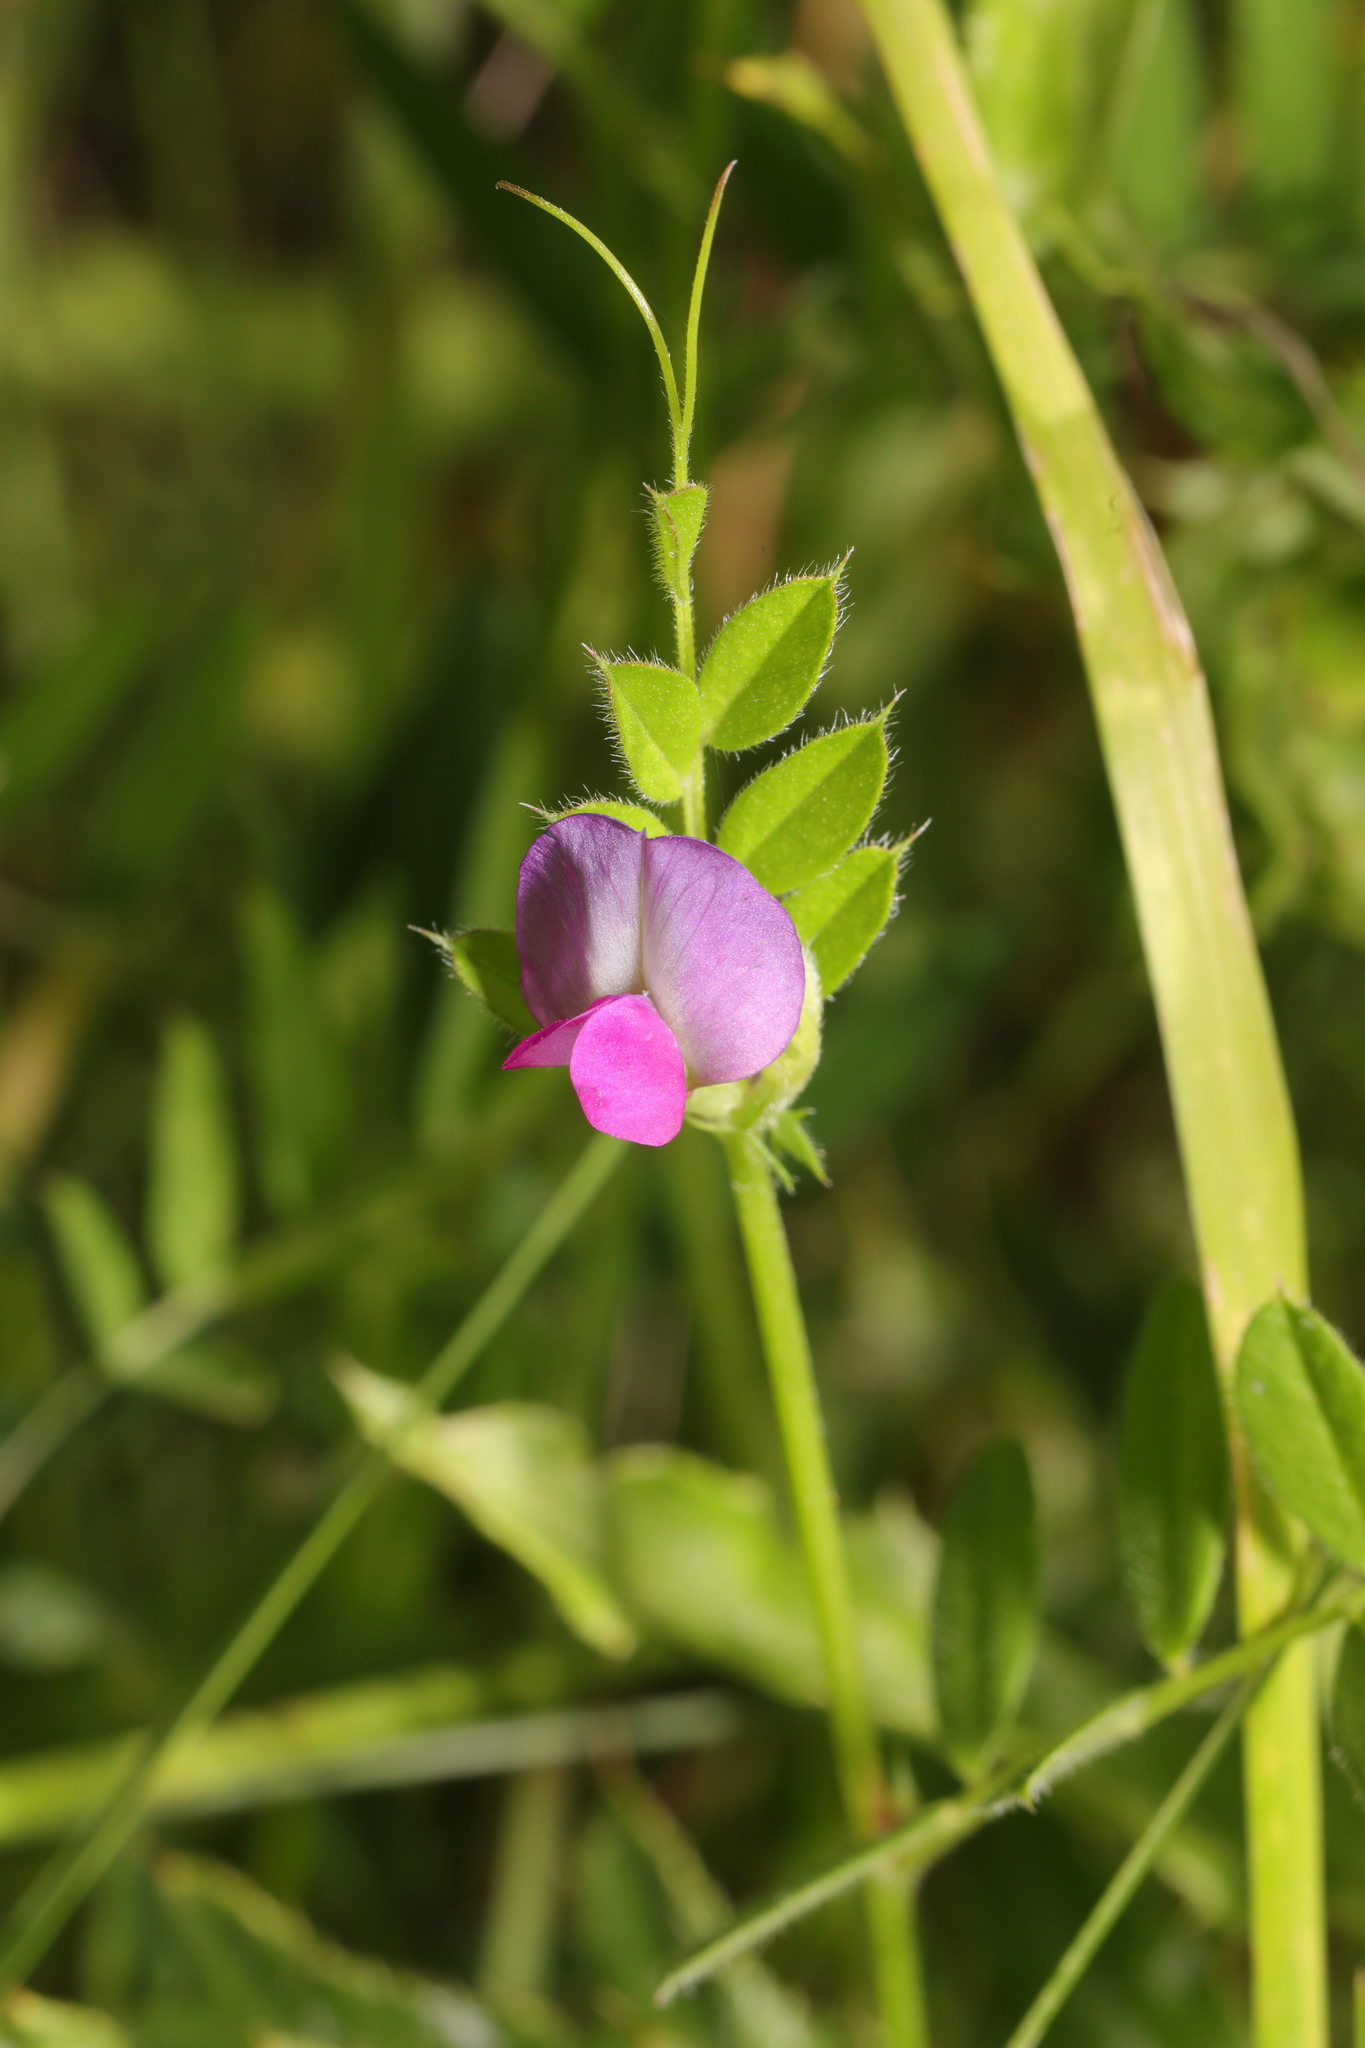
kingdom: Plantae
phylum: Tracheophyta
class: Magnoliopsida
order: Fabales
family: Fabaceae
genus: Vicia
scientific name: Vicia sativa
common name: Garden vetch
